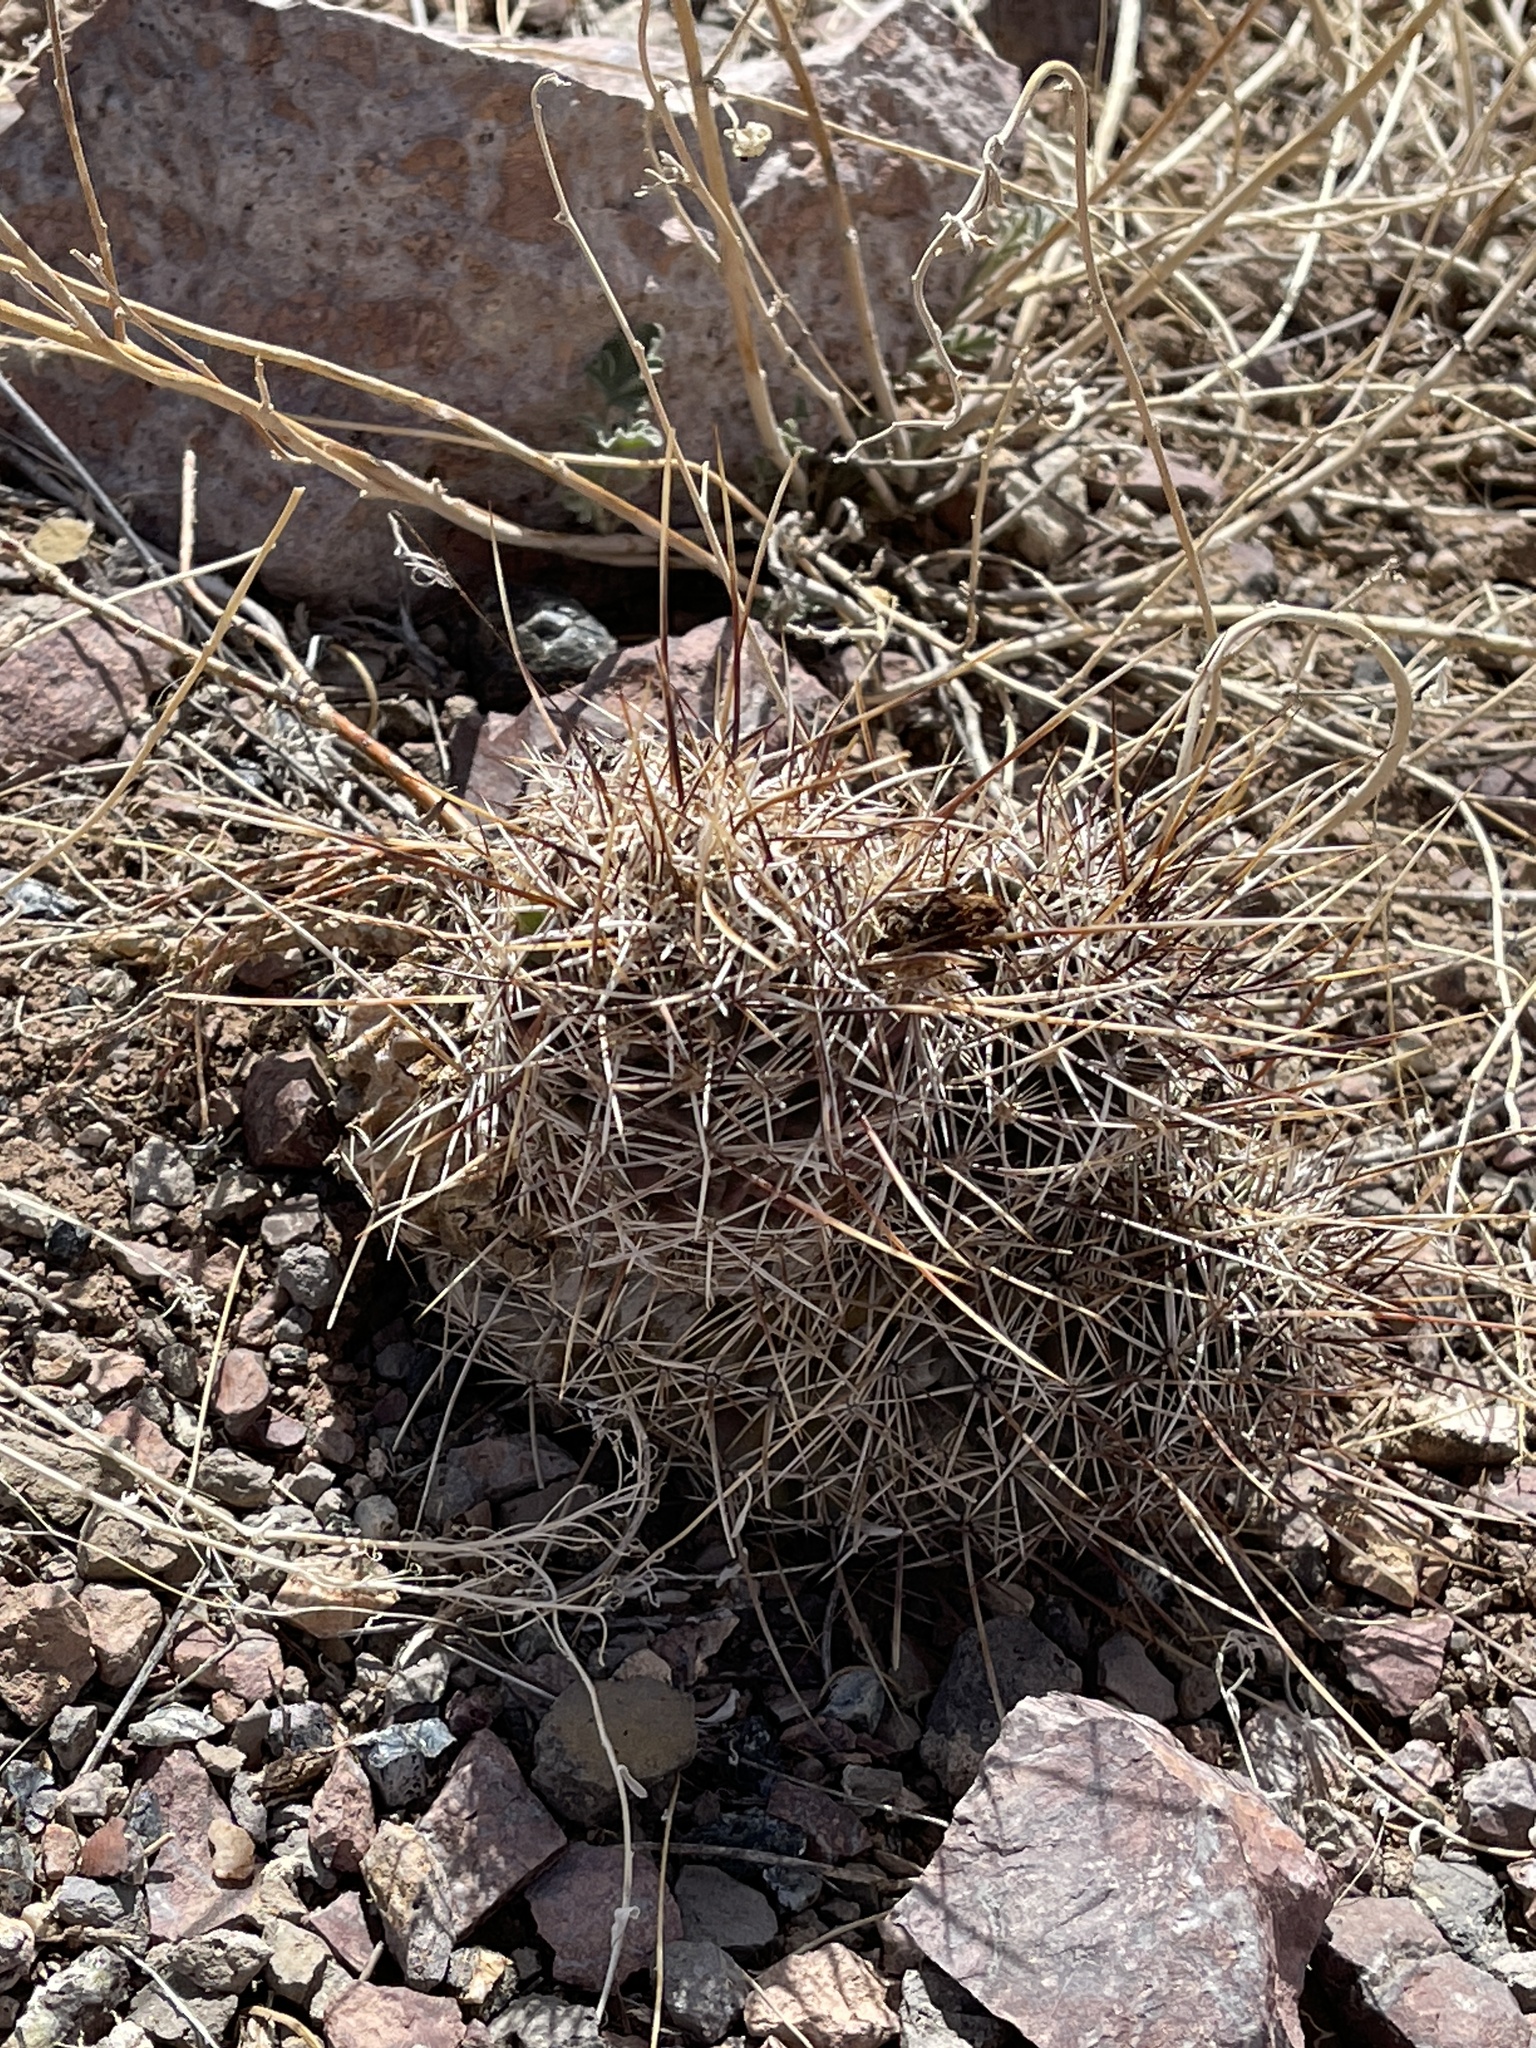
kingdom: Plantae
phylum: Tracheophyta
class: Magnoliopsida
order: Caryophyllales
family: Cactaceae
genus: Echinocereus
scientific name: Echinocereus fendleri
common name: Fendler's hedgehog cactus
